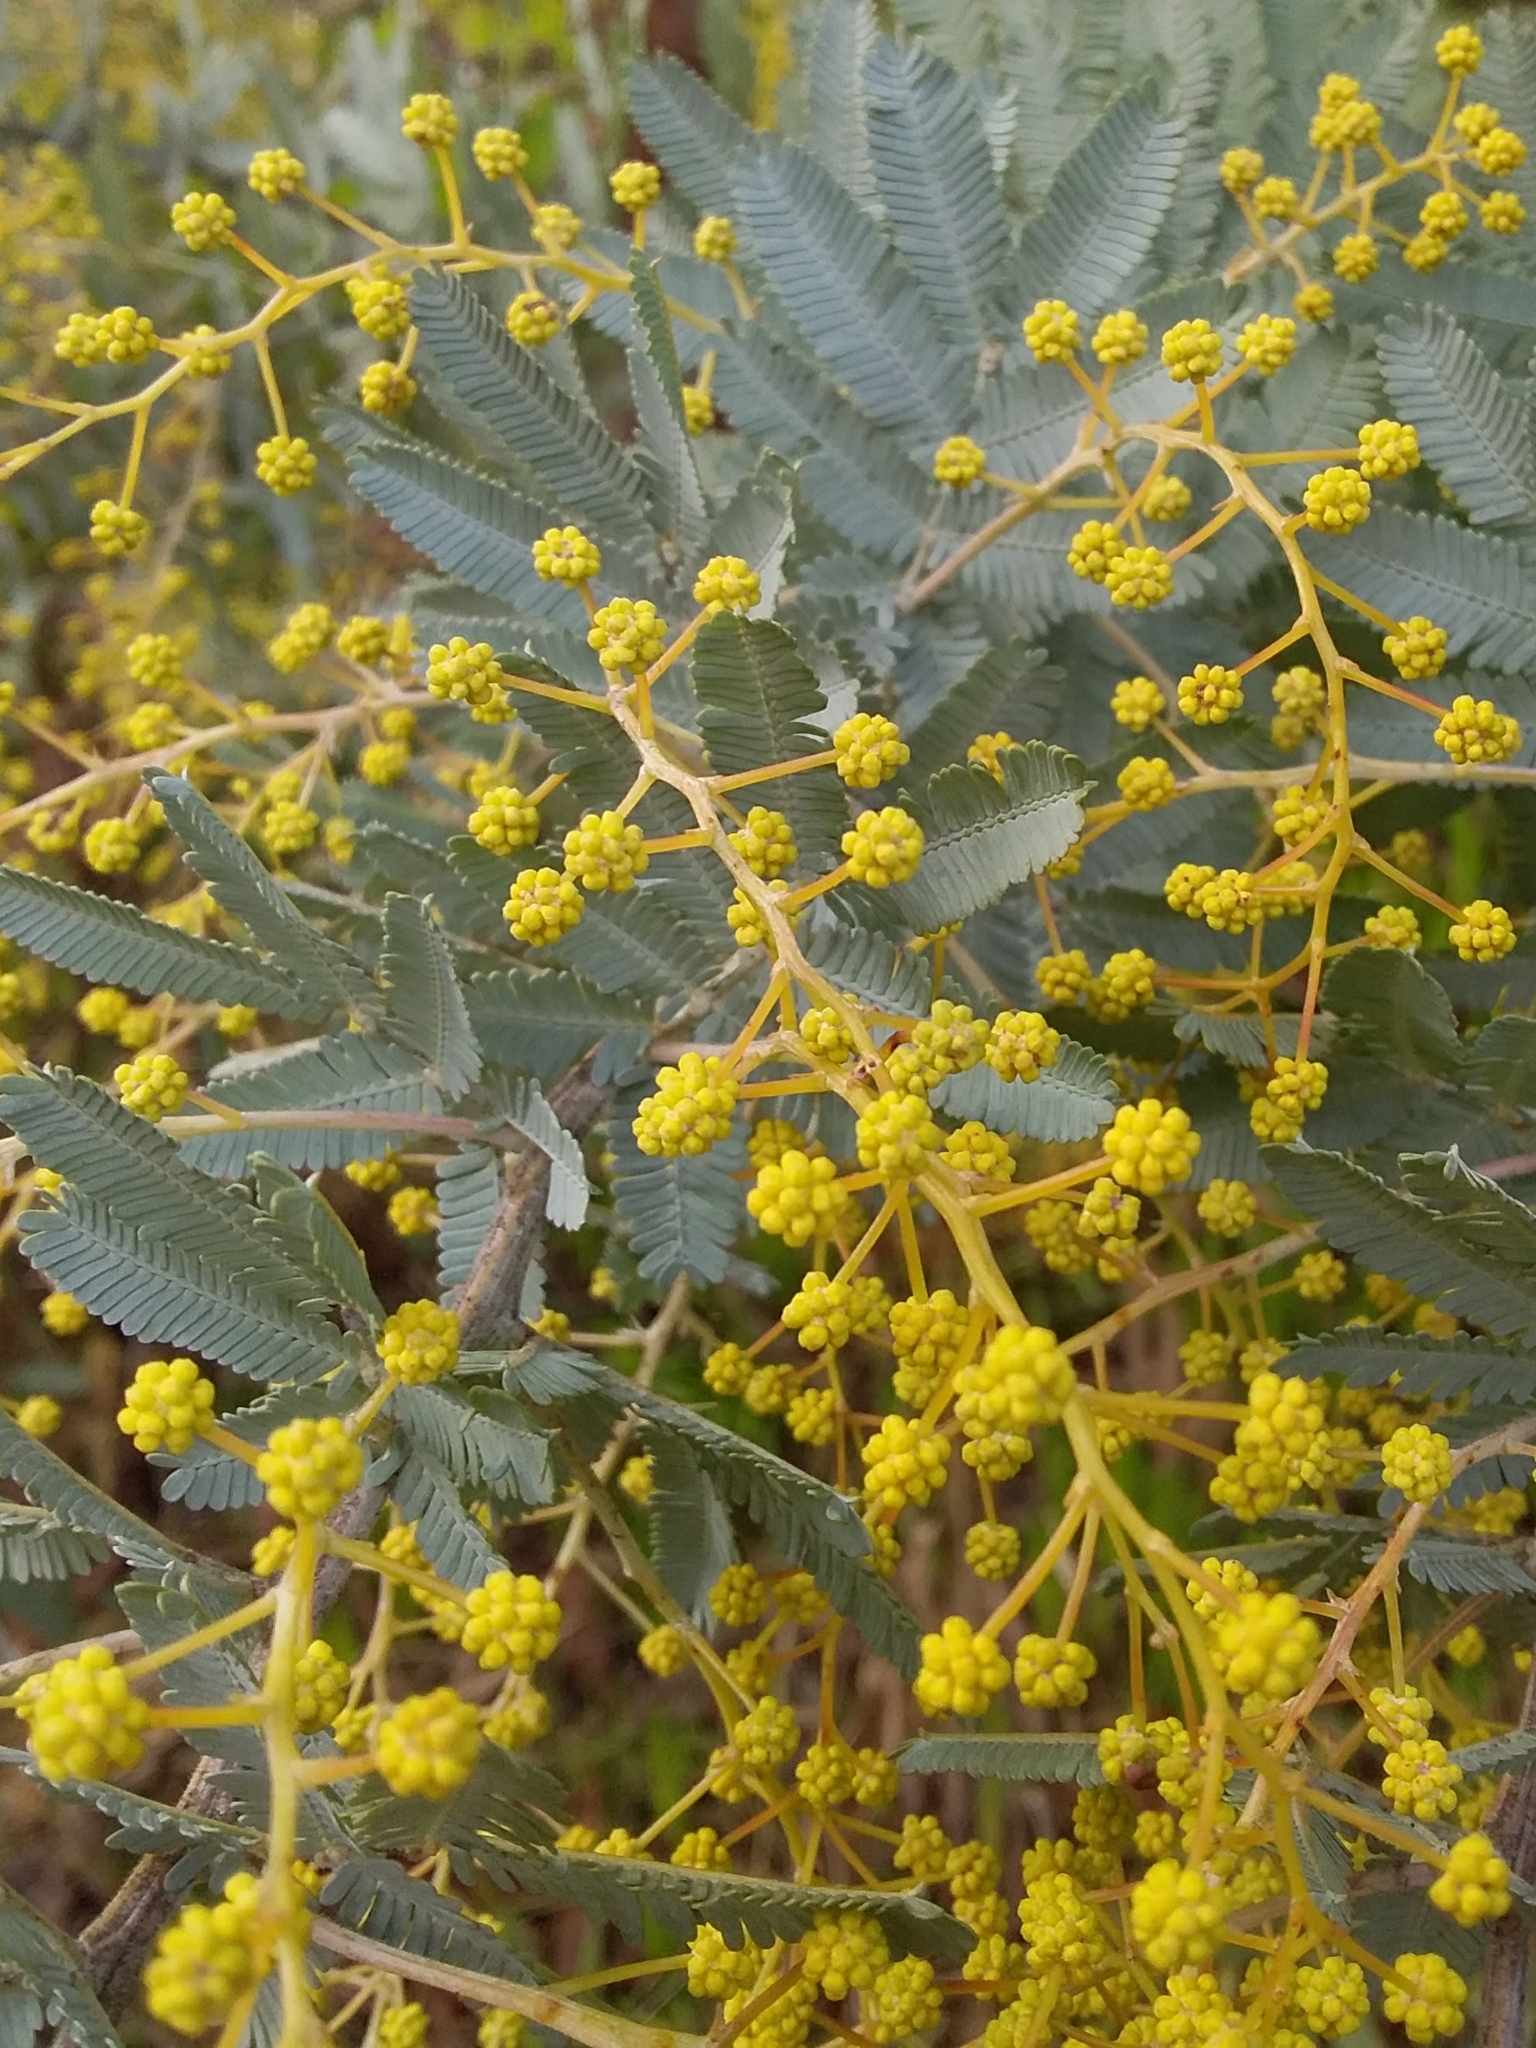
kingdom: Plantae
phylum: Tracheophyta
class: Magnoliopsida
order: Fabales
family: Fabaceae
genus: Acacia
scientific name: Acacia baileyana
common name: Cootamundra wattle
